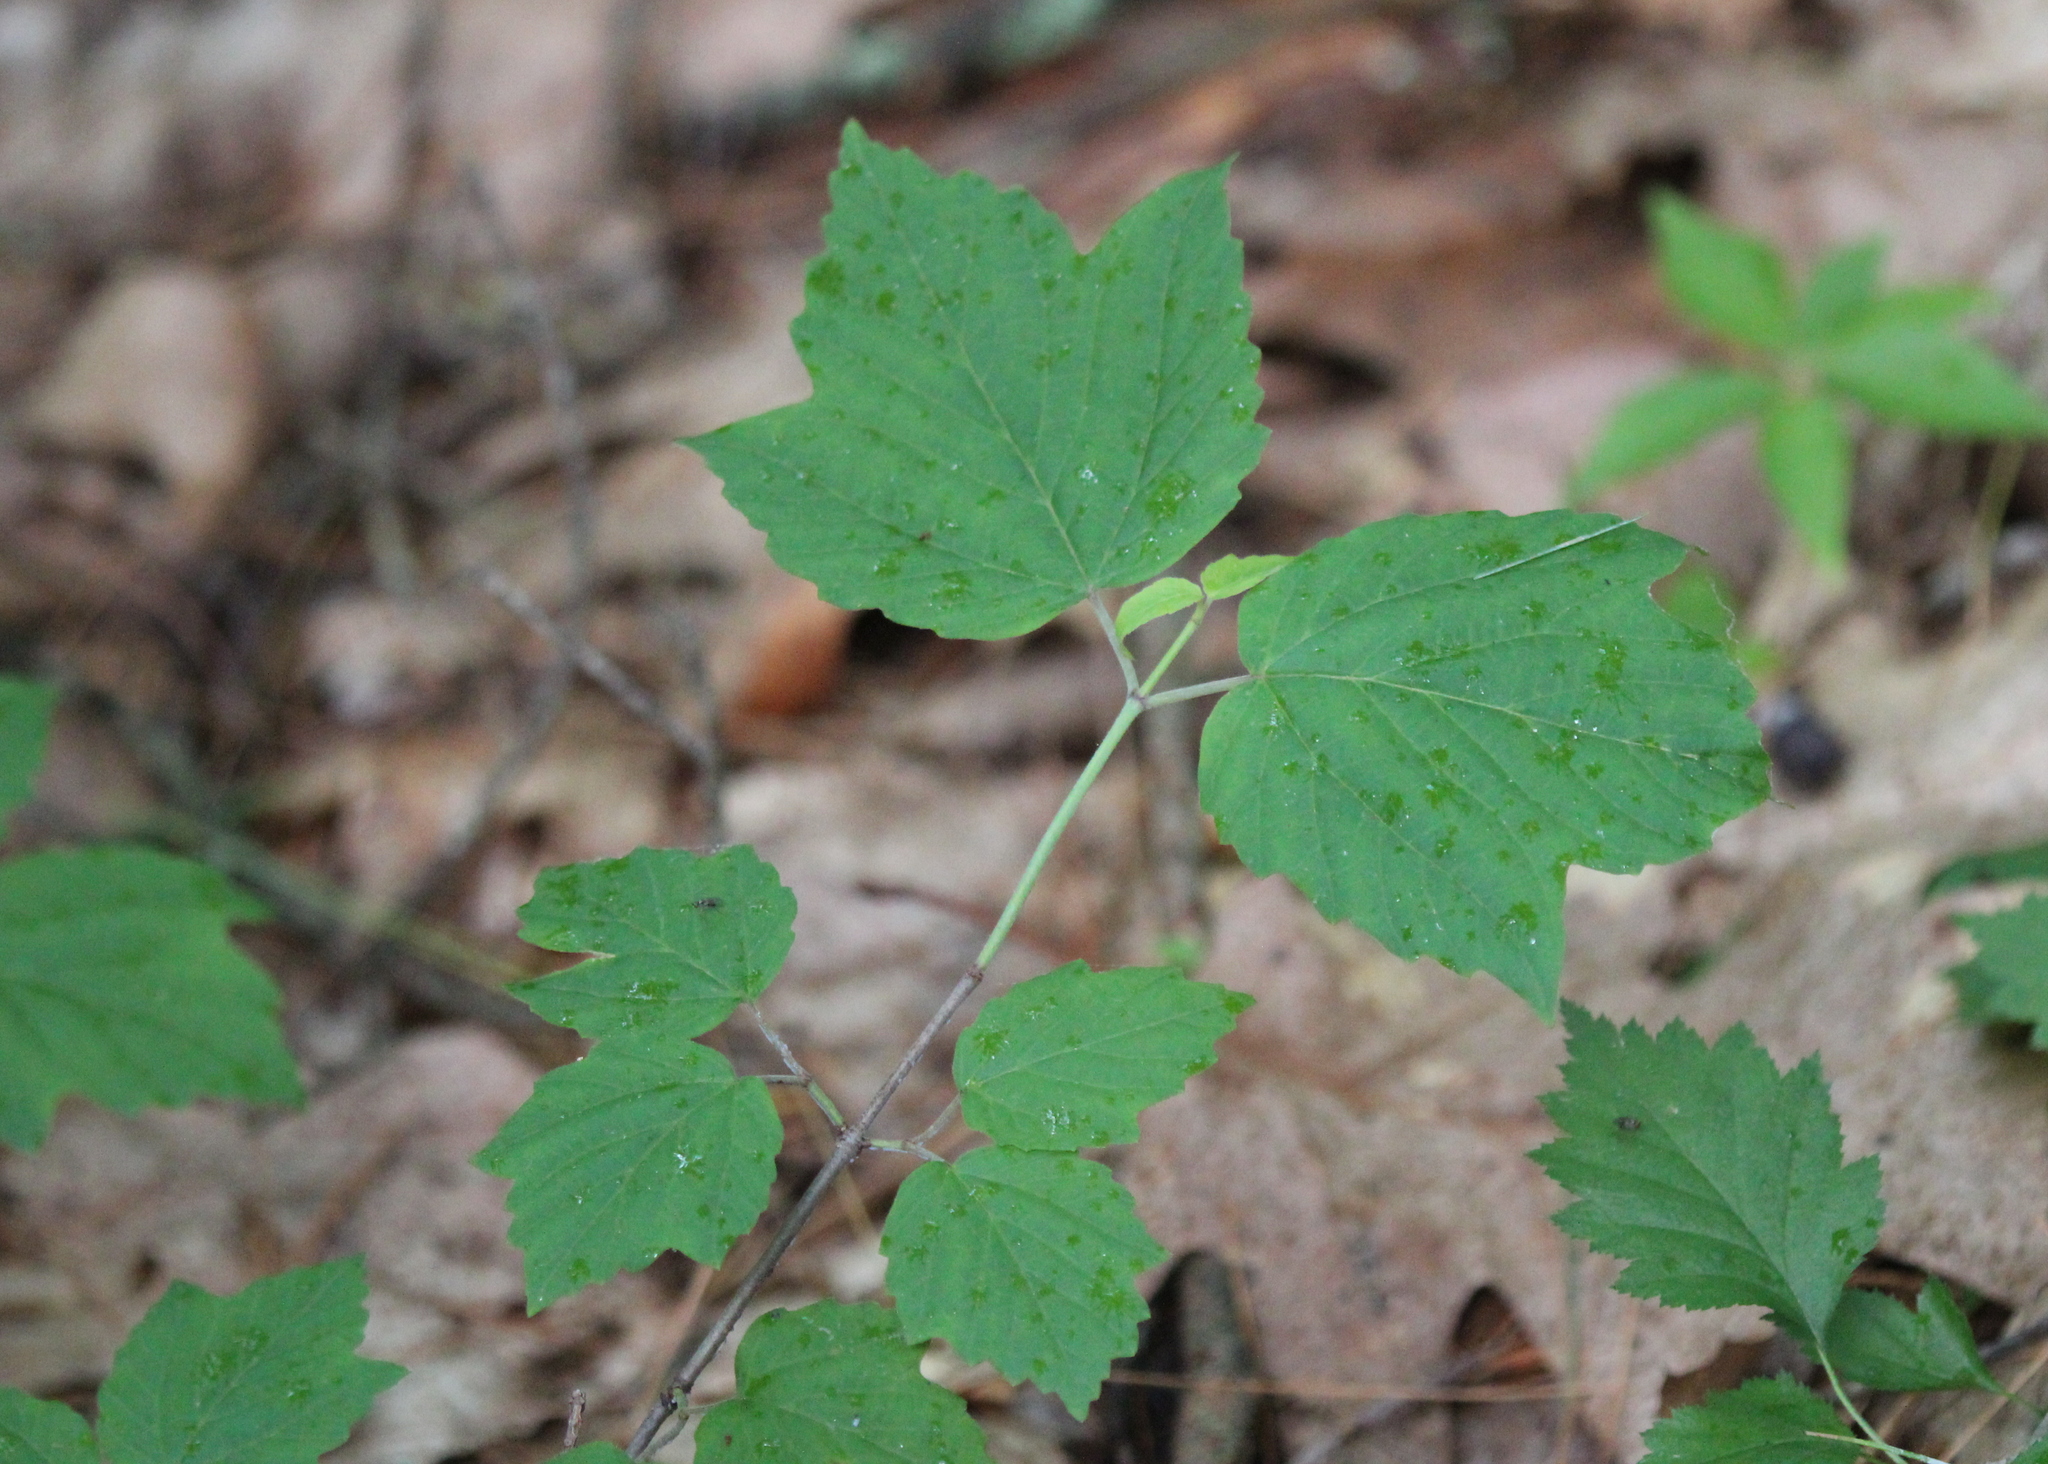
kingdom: Plantae
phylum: Tracheophyta
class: Magnoliopsida
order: Dipsacales
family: Viburnaceae
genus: Viburnum
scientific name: Viburnum acerifolium
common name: Dockmackie
